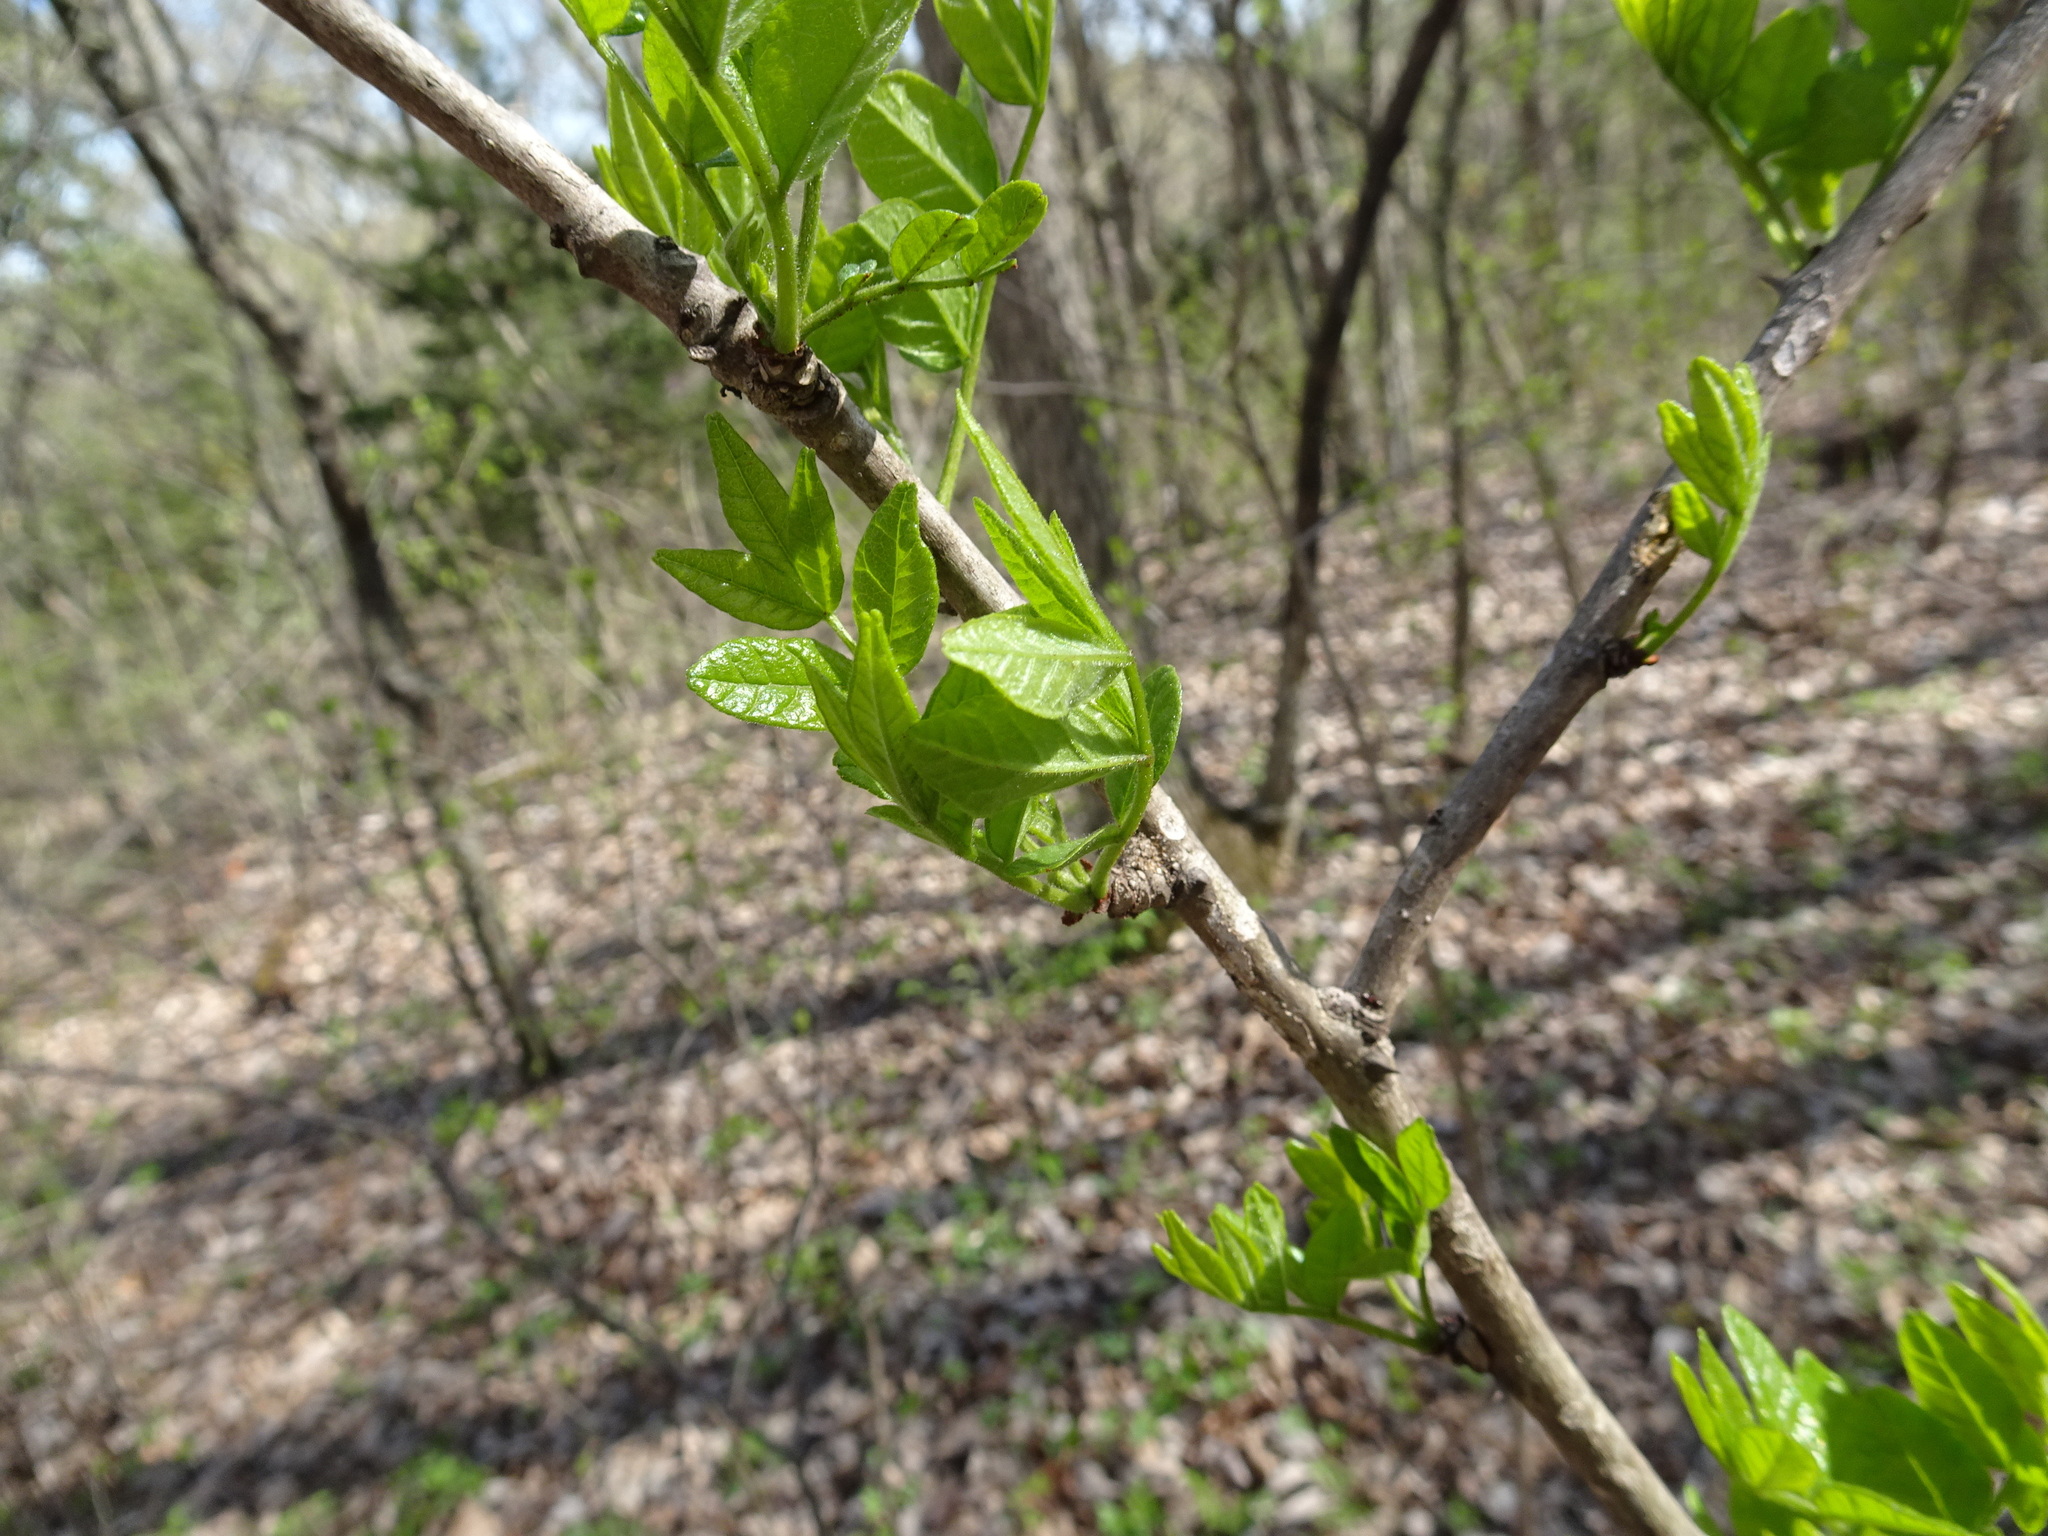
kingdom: Plantae
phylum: Tracheophyta
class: Magnoliopsida
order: Sapindales
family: Rutaceae
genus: Zanthoxylum
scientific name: Zanthoxylum americanum
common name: Northern prickly-ash
